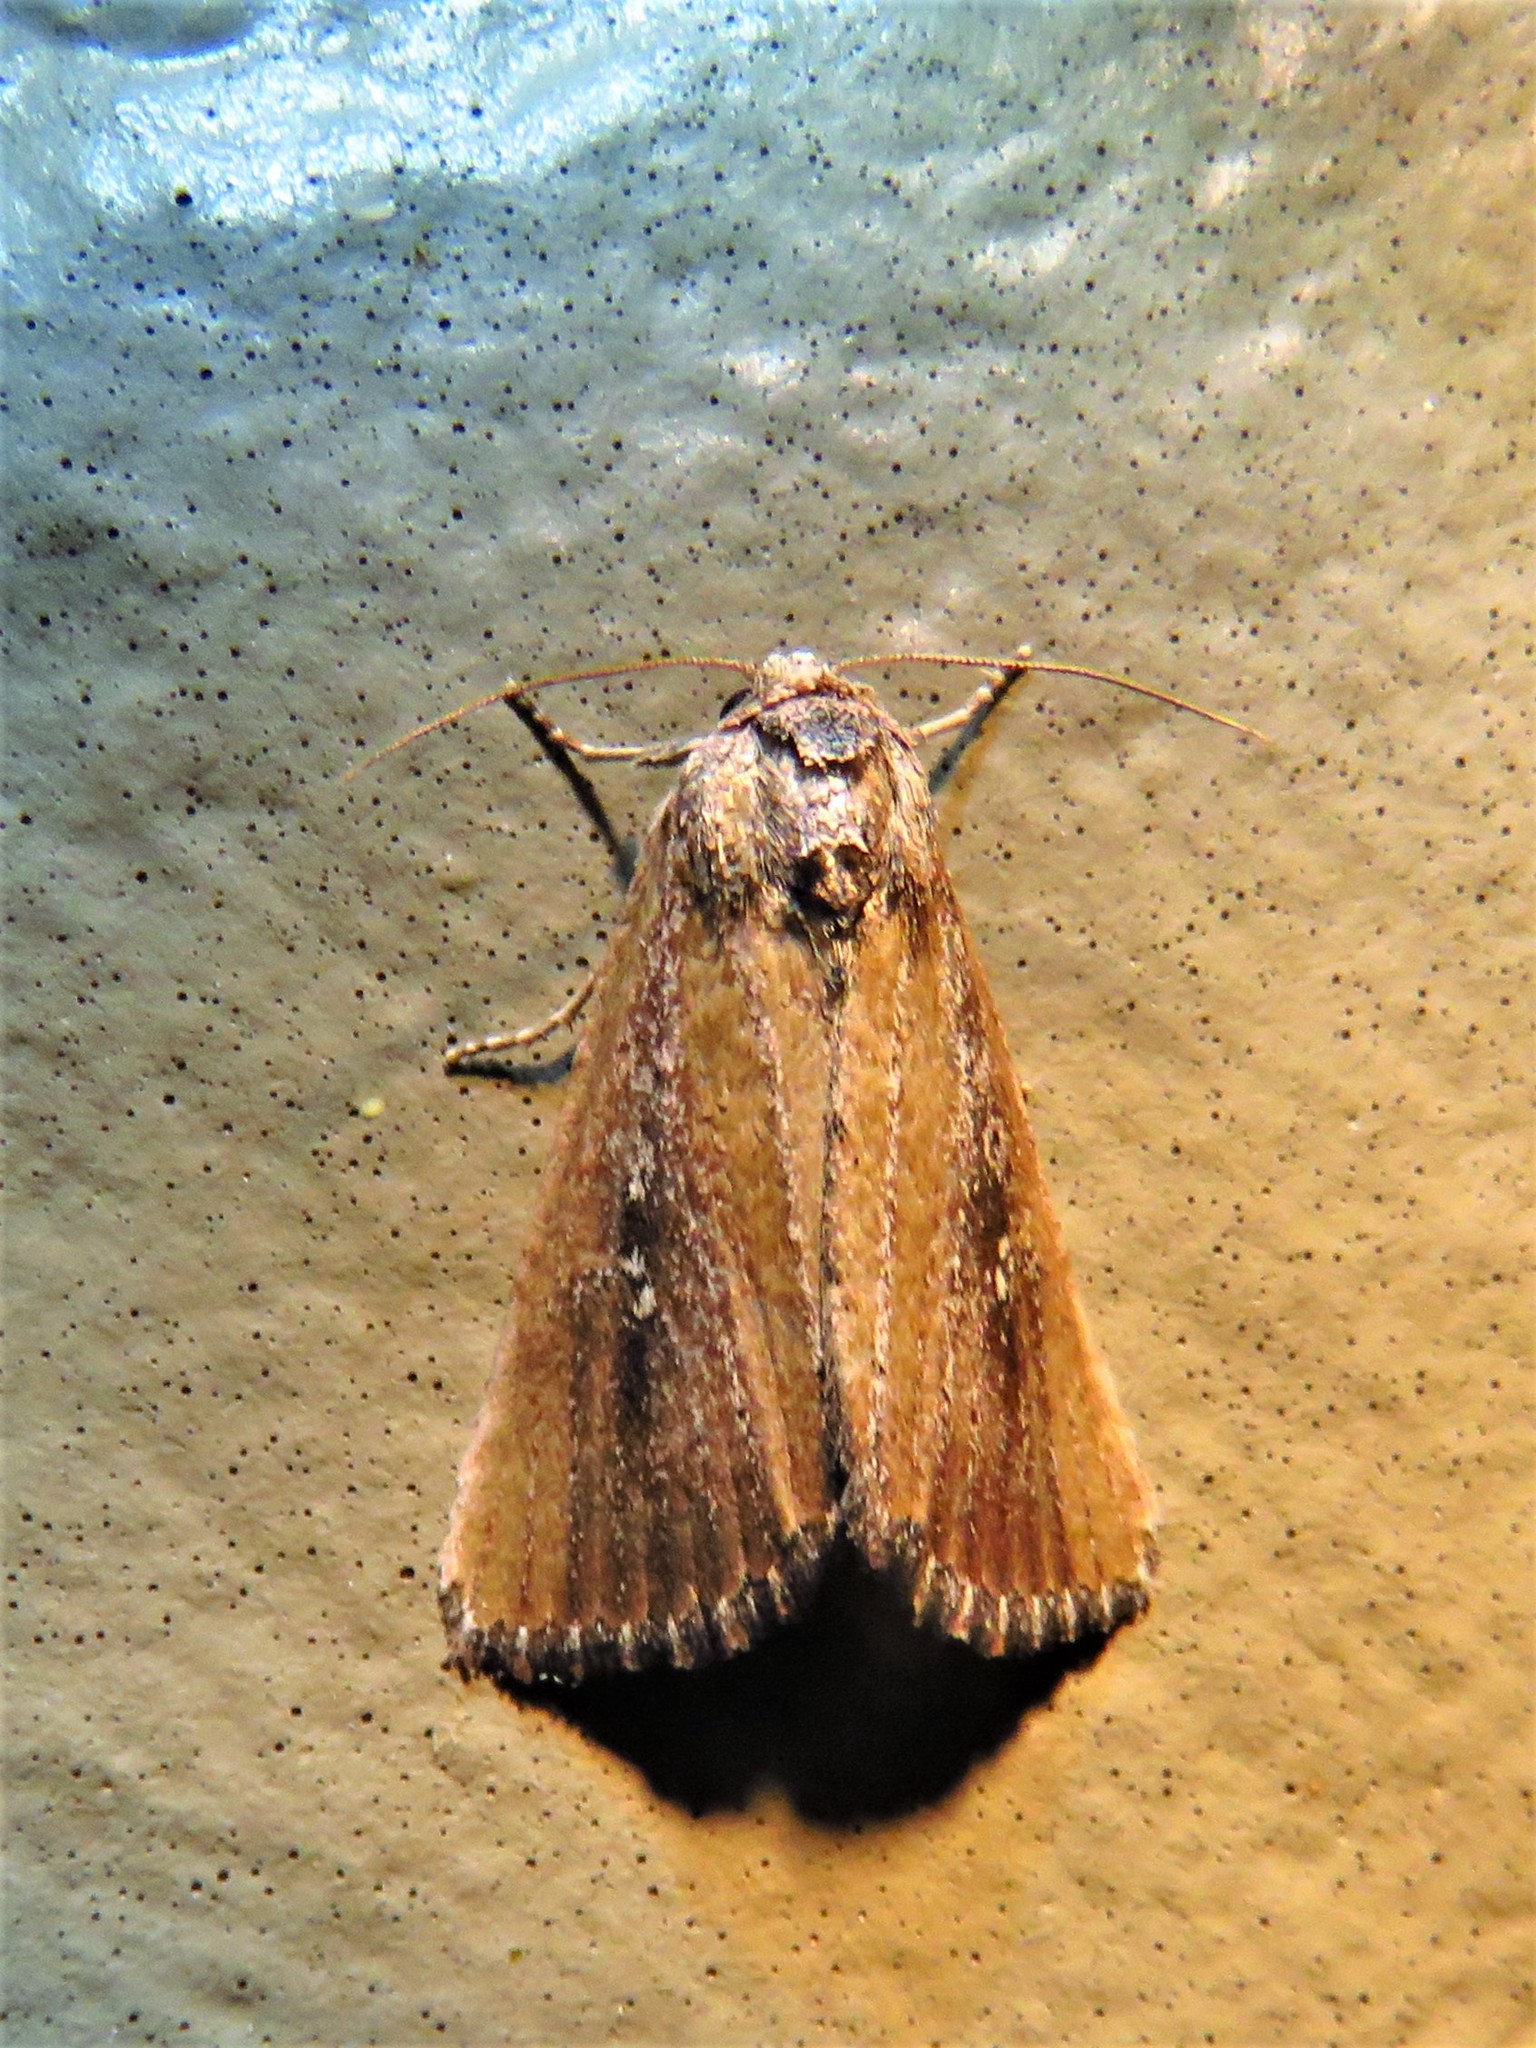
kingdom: Animalia
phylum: Arthropoda
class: Insecta
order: Lepidoptera
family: Noctuidae
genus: Condica
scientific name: Condica videns
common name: White-dotted groundling
